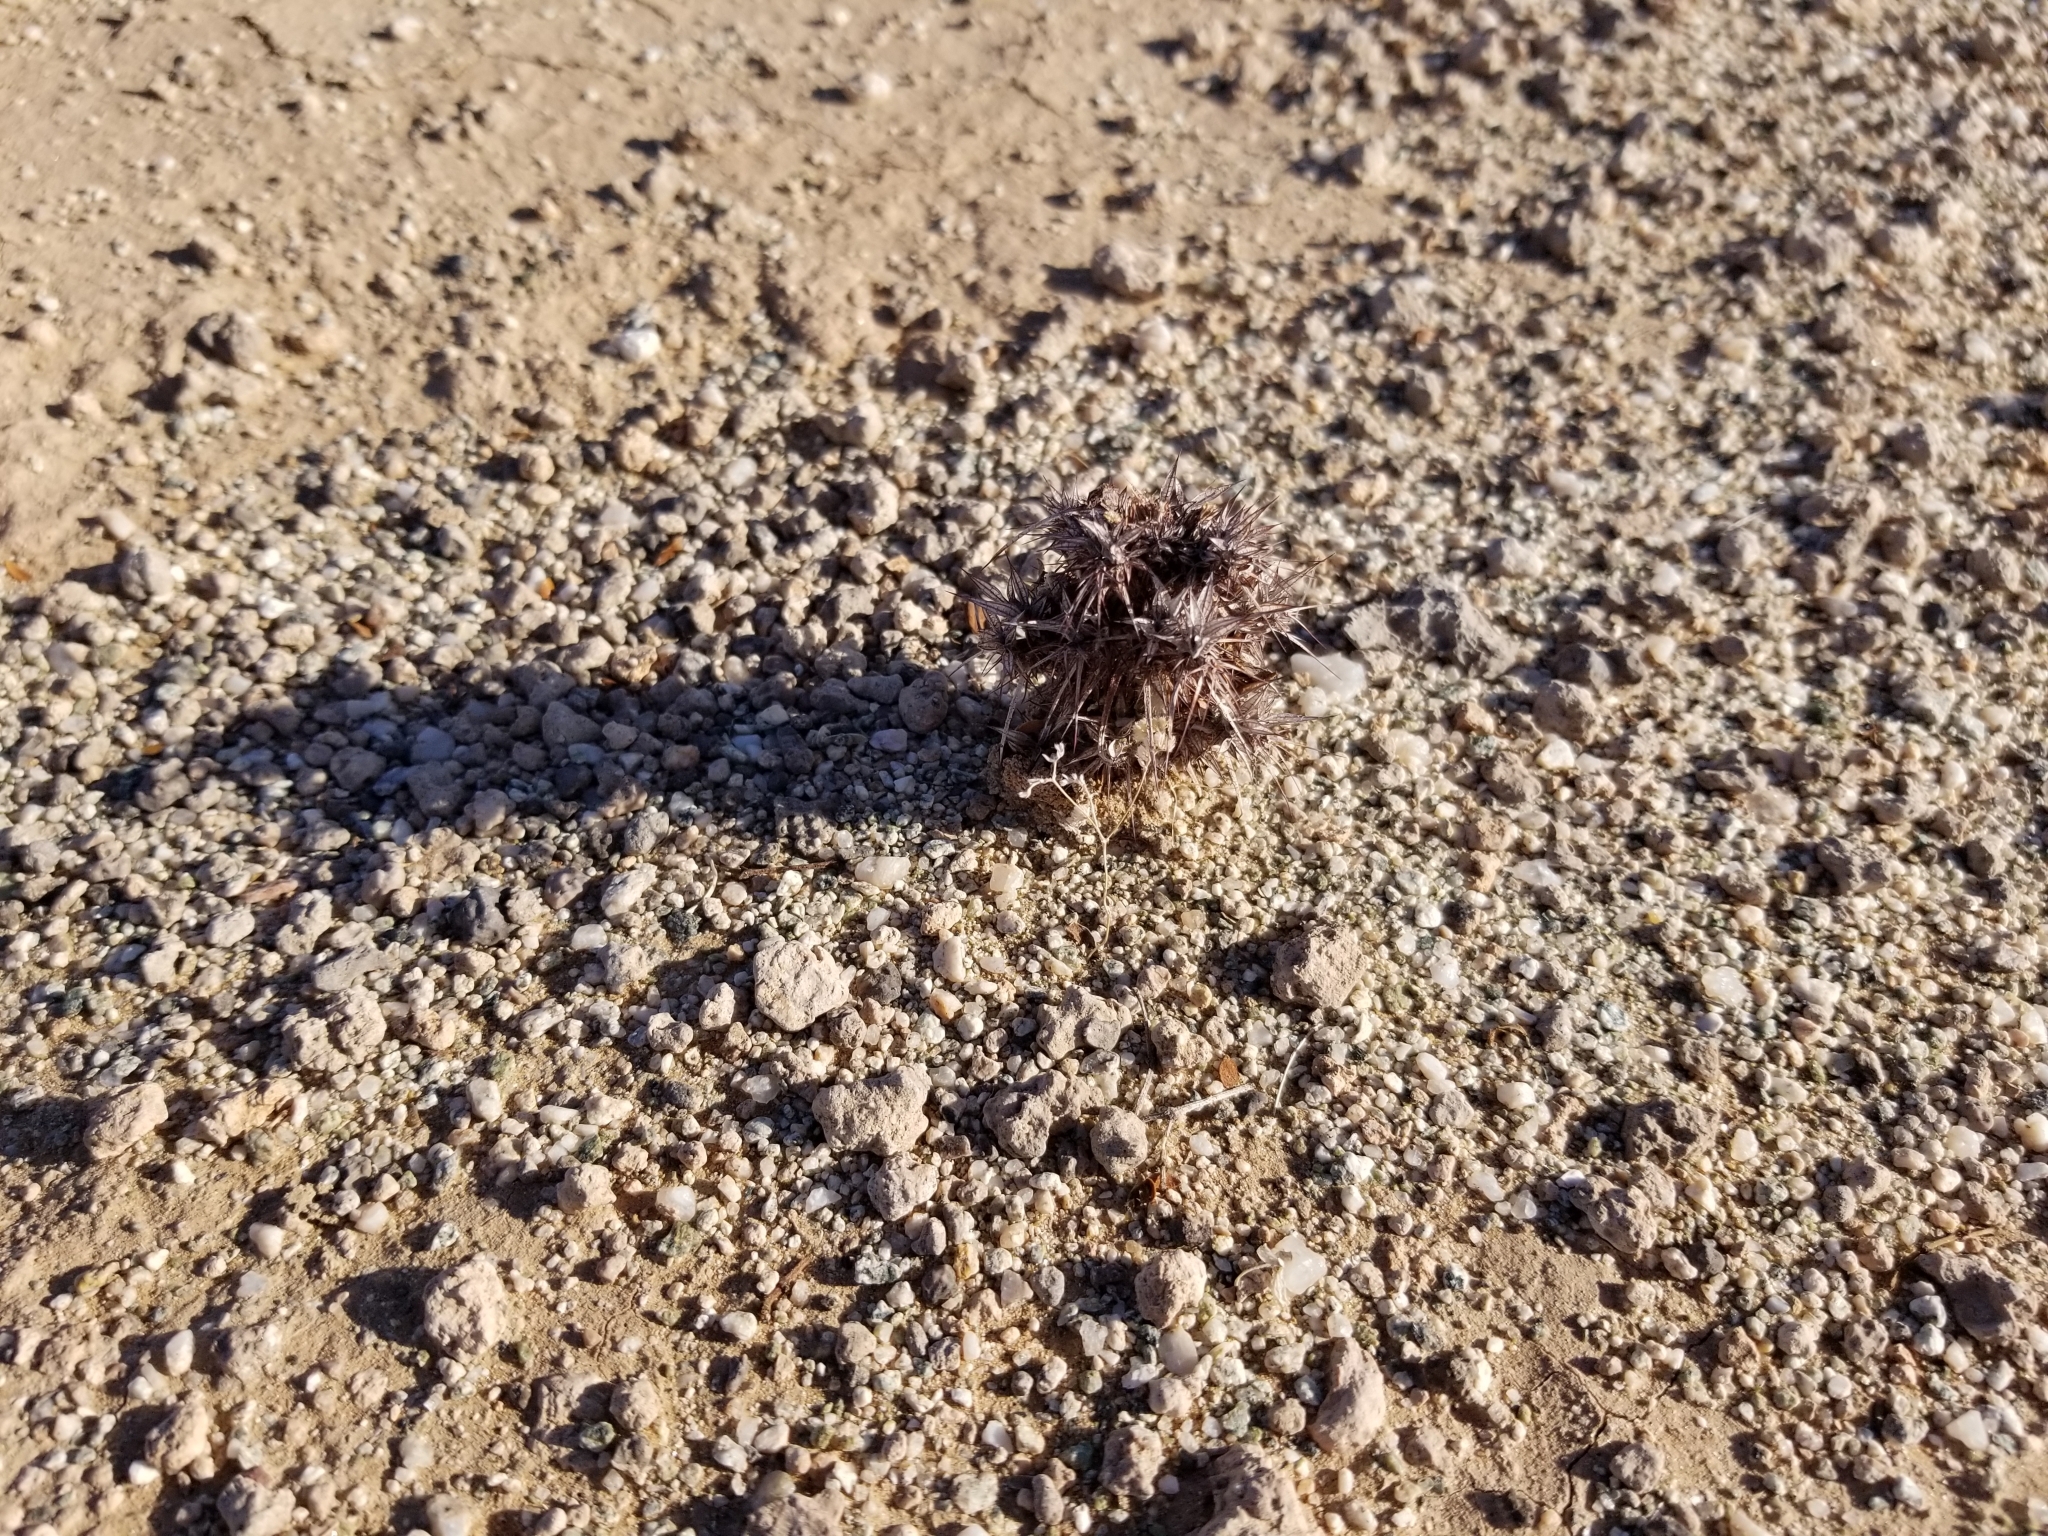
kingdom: Plantae
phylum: Tracheophyta
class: Magnoliopsida
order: Caryophyllales
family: Polygonaceae
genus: Chorizanthe
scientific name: Chorizanthe rigida
